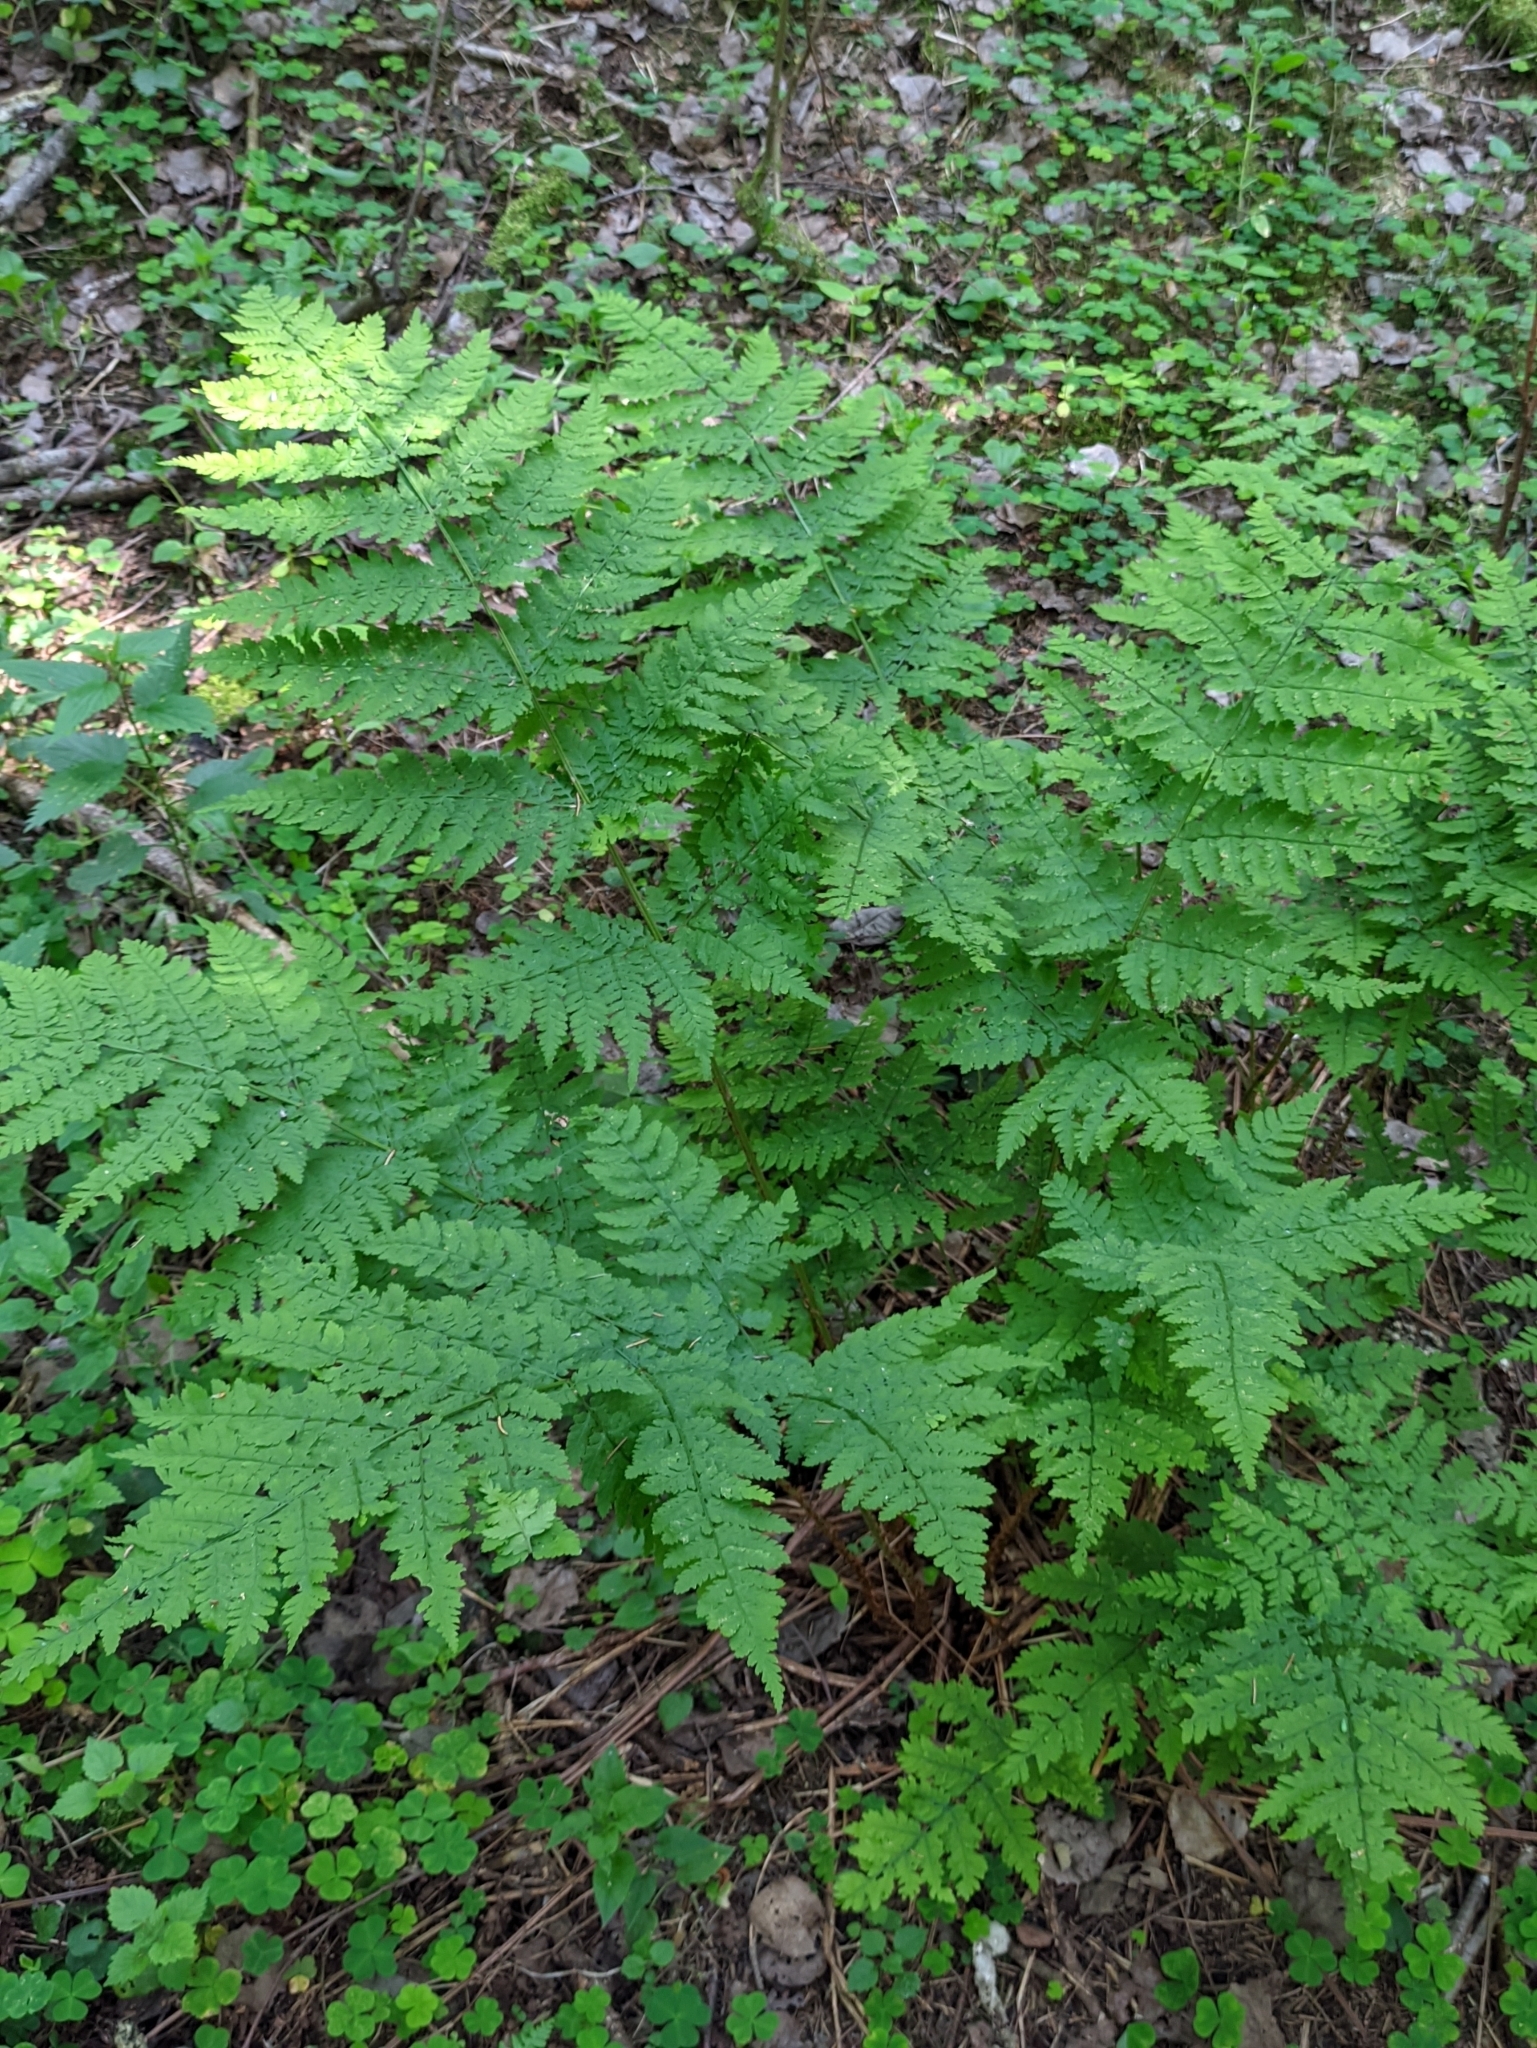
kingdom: Plantae
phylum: Tracheophyta
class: Polypodiopsida
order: Polypodiales
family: Dryopteridaceae
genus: Dryopteris
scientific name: Dryopteris expansa
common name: Northern buckler fern
